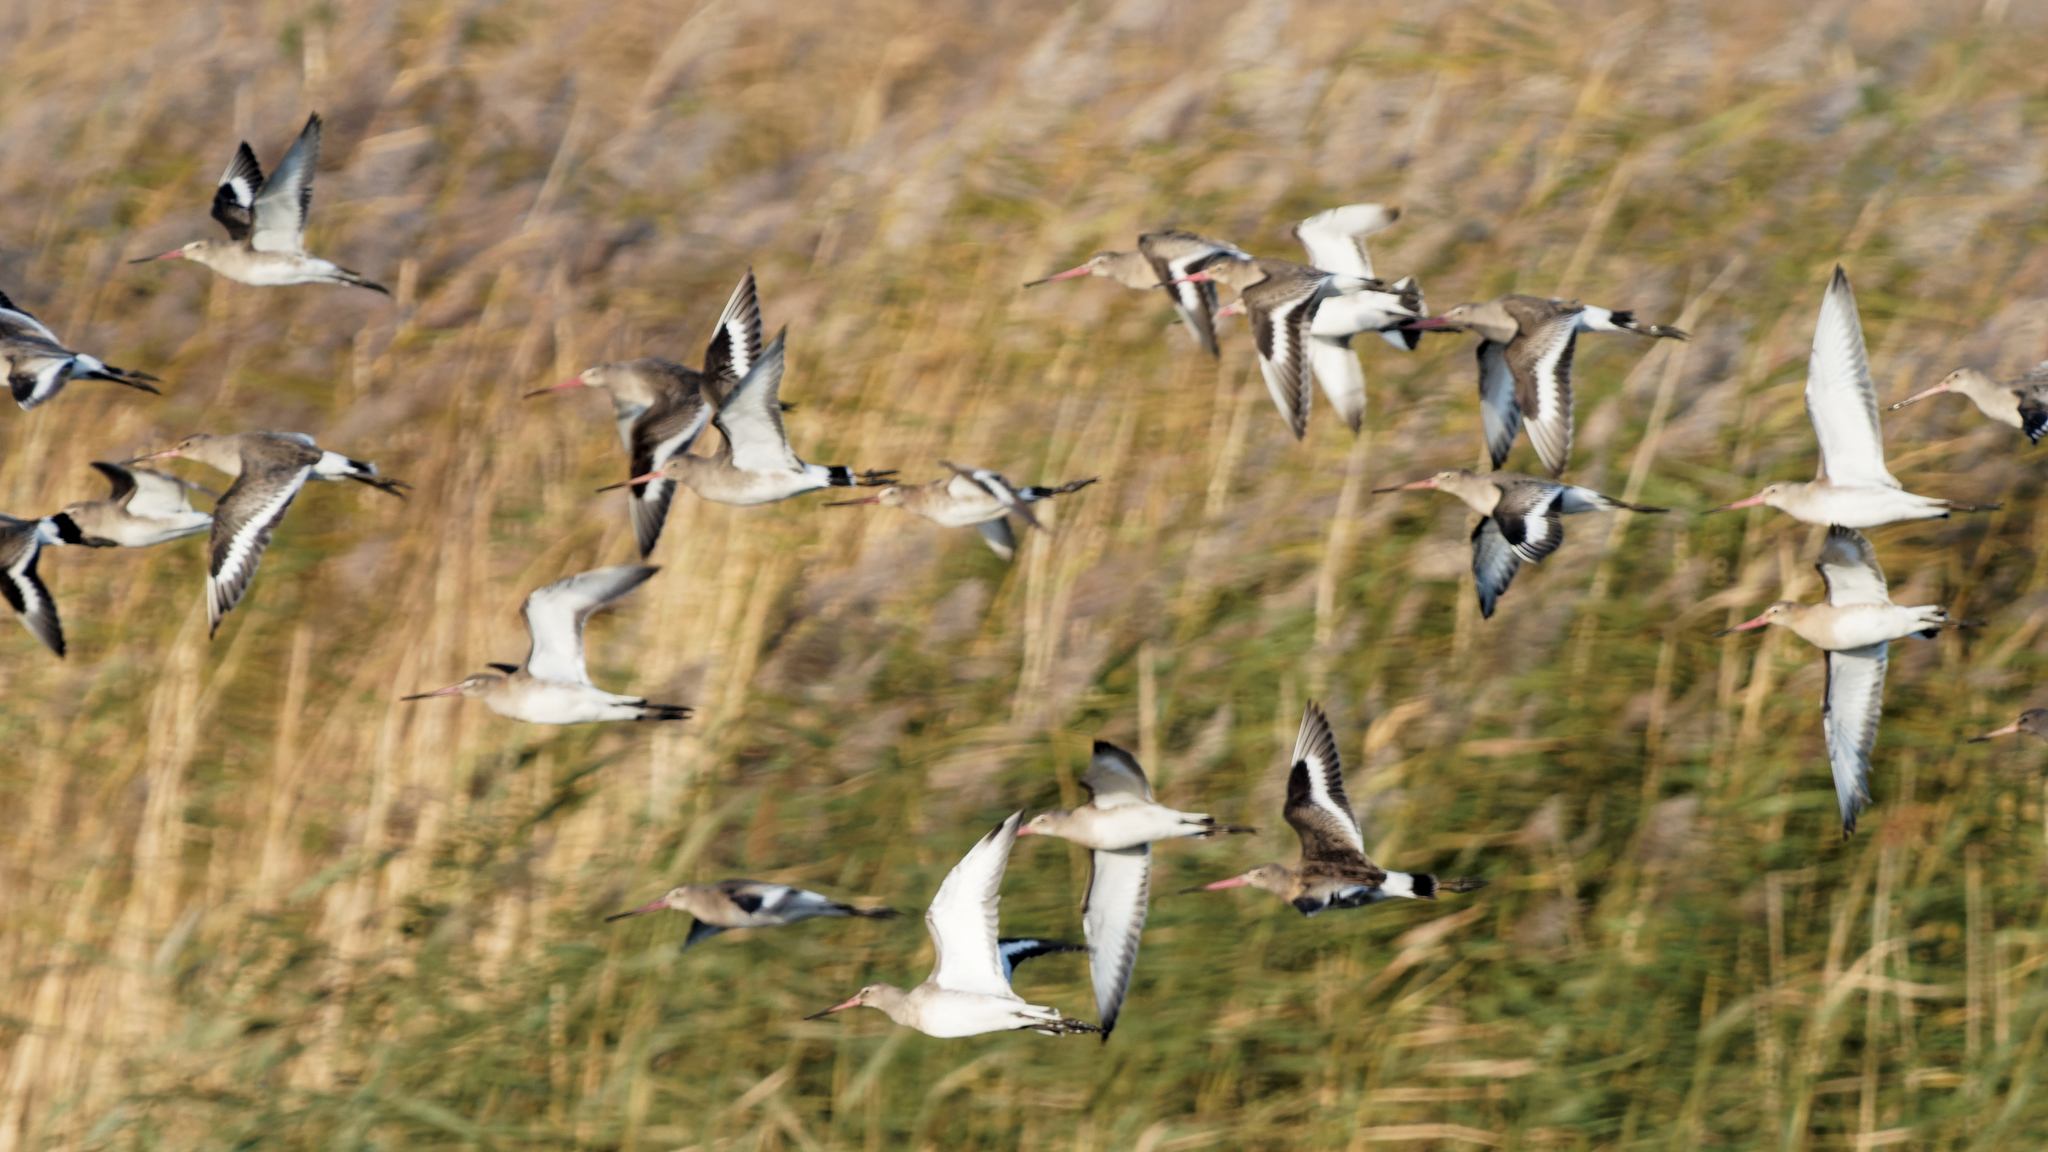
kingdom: Animalia
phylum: Chordata
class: Aves
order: Charadriiformes
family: Scolopacidae
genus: Limosa
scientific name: Limosa limosa
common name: Black-tailed godwit
